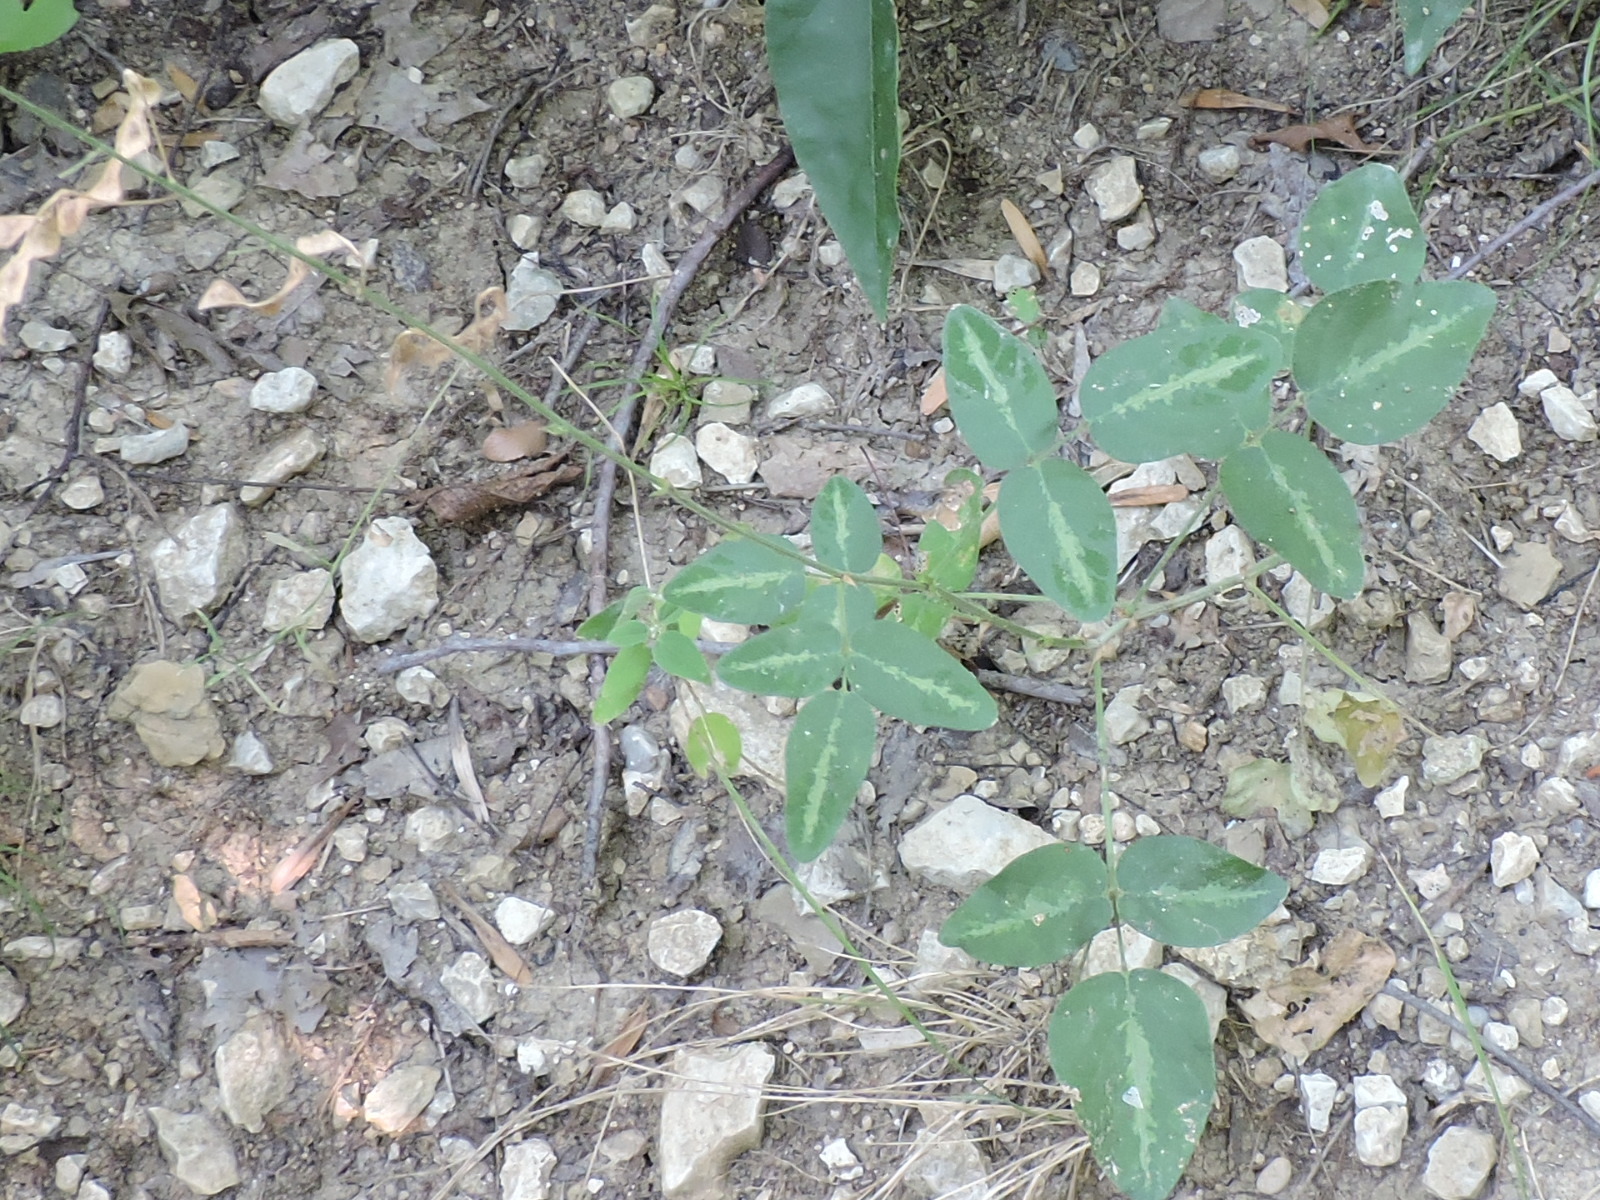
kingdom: Plantae
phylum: Tracheophyta
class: Magnoliopsida
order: Fabales
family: Fabaceae
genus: Desmodium
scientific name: Desmodium tweedyi
